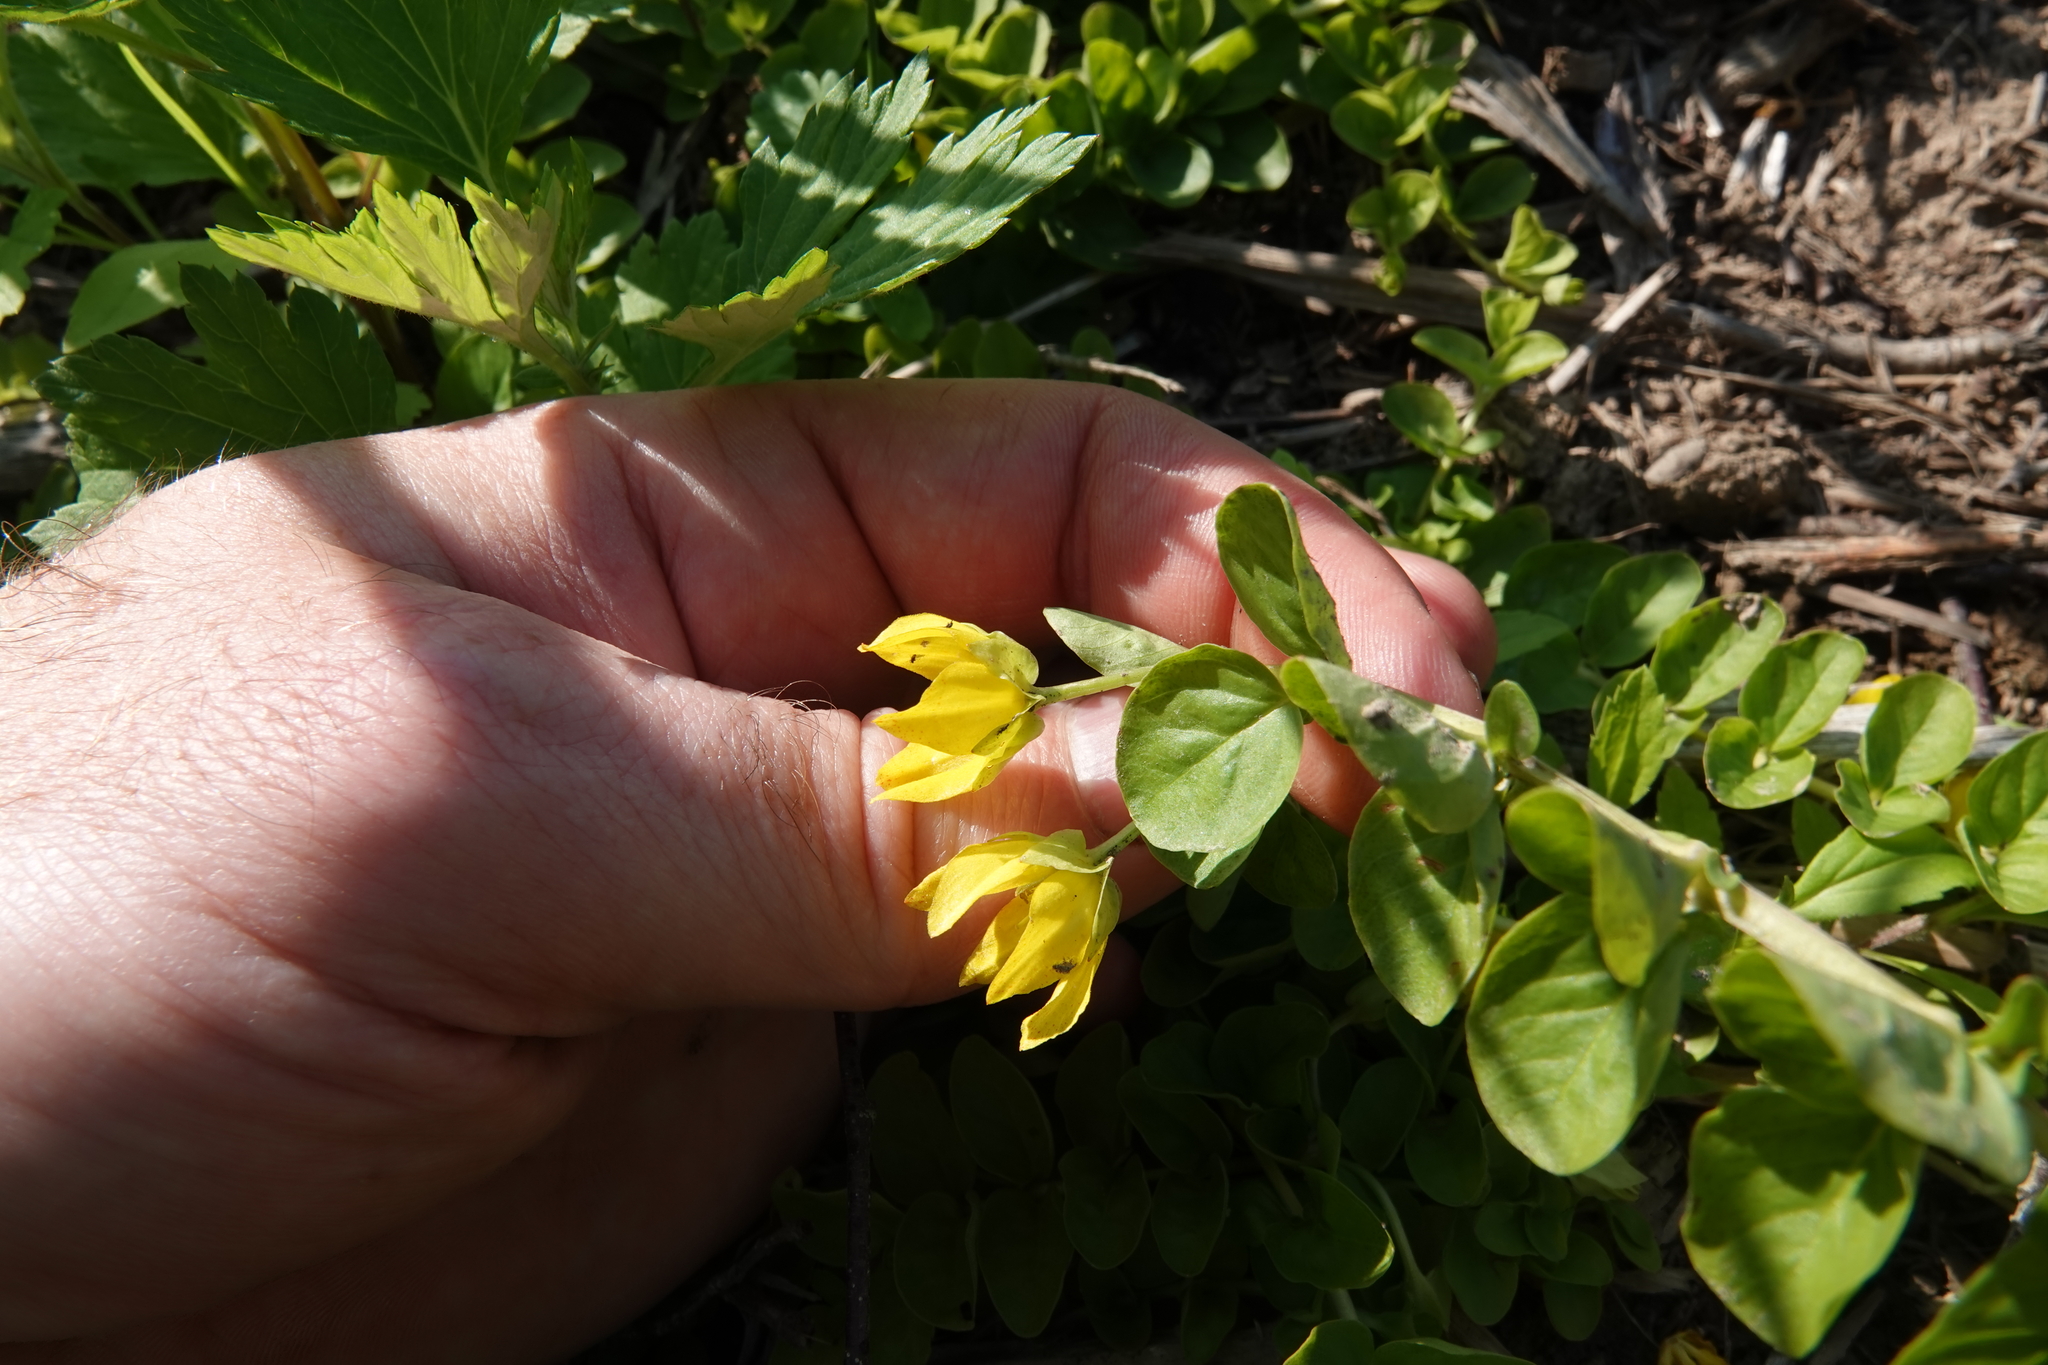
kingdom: Plantae
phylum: Tracheophyta
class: Magnoliopsida
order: Ericales
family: Primulaceae
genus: Lysimachia
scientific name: Lysimachia nummularia
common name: Moneywort
